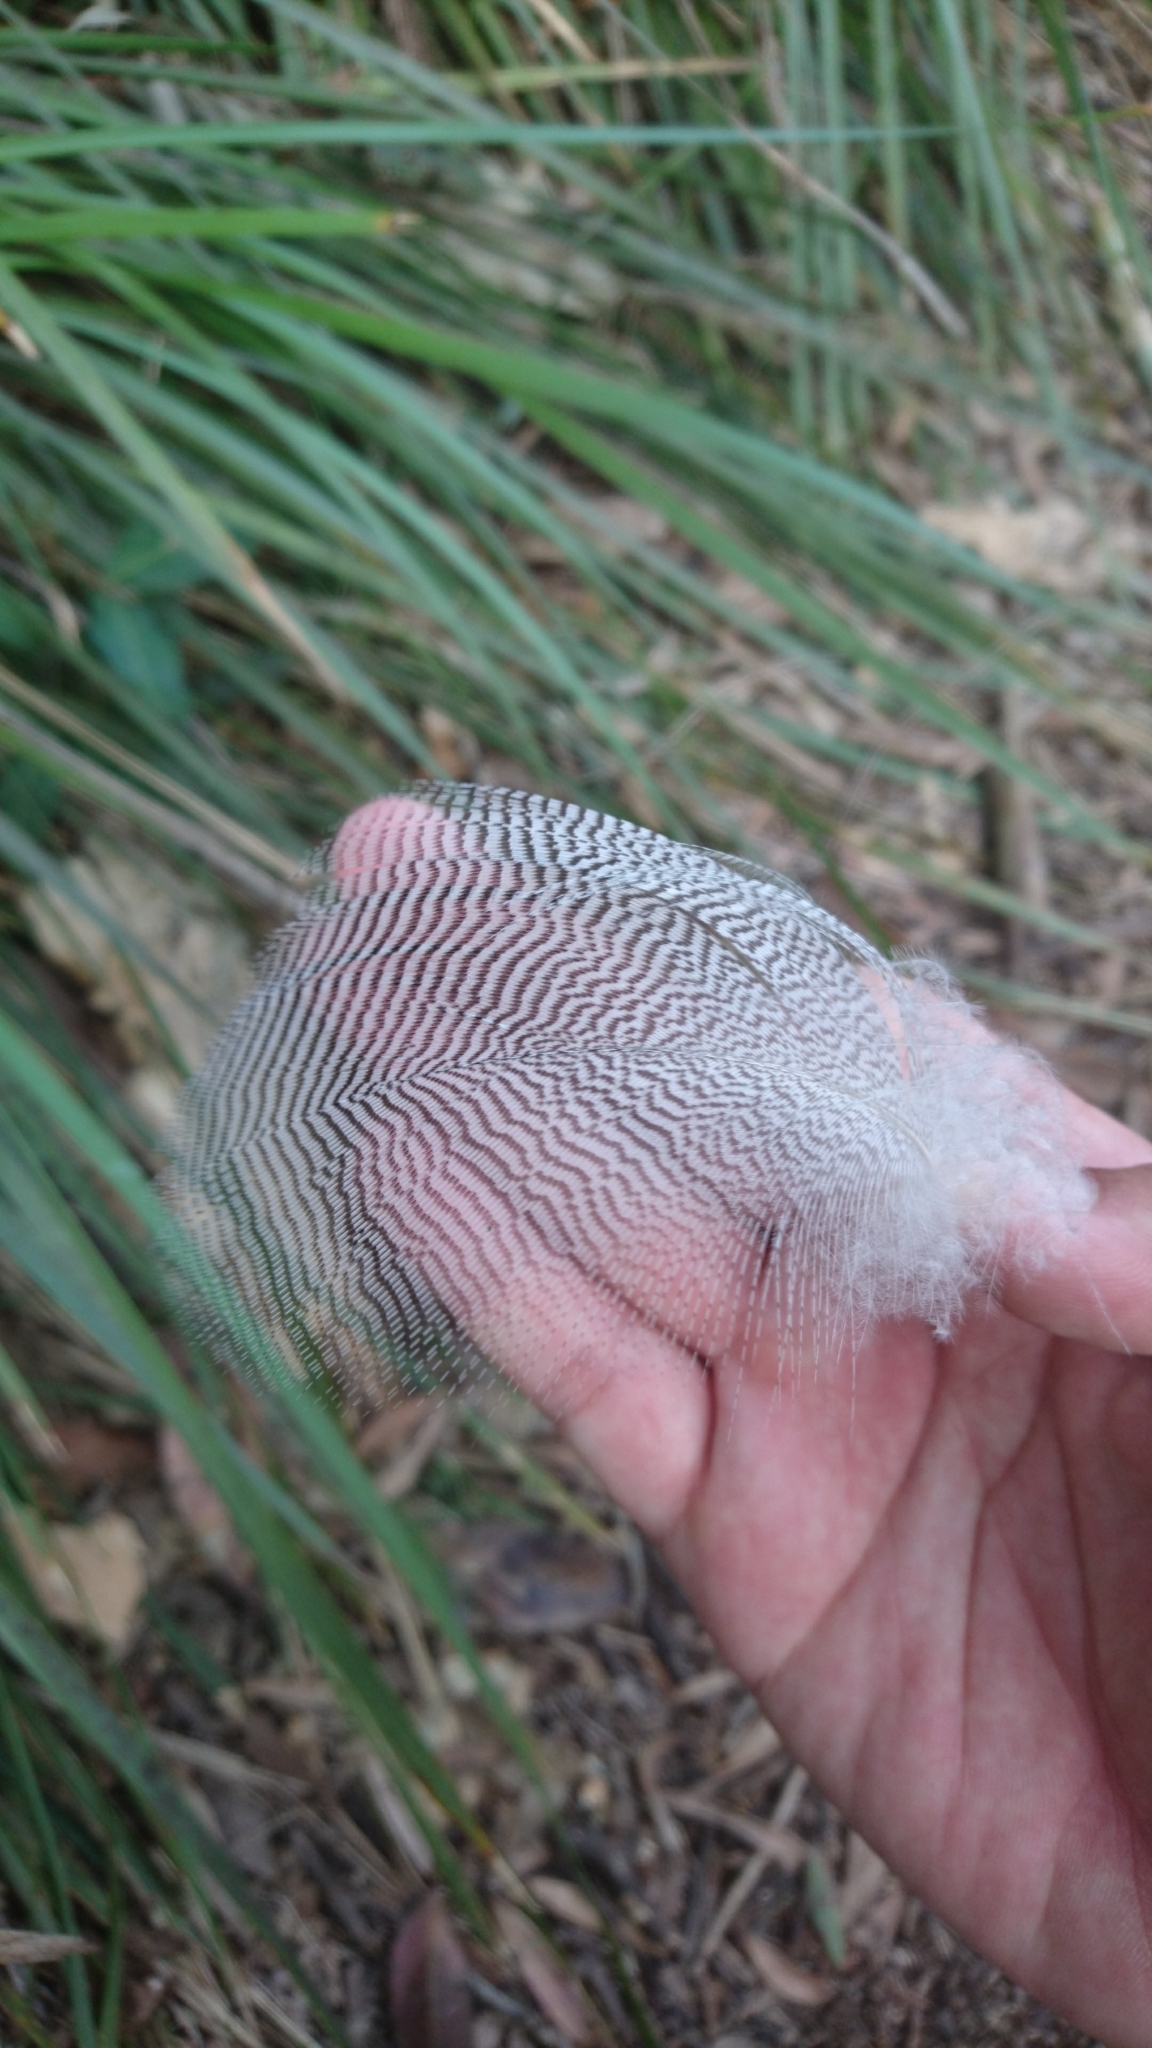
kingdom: Animalia
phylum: Chordata
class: Aves
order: Anseriformes
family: Anatidae
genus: Chenonetta
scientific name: Chenonetta jubata
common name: Maned duck
